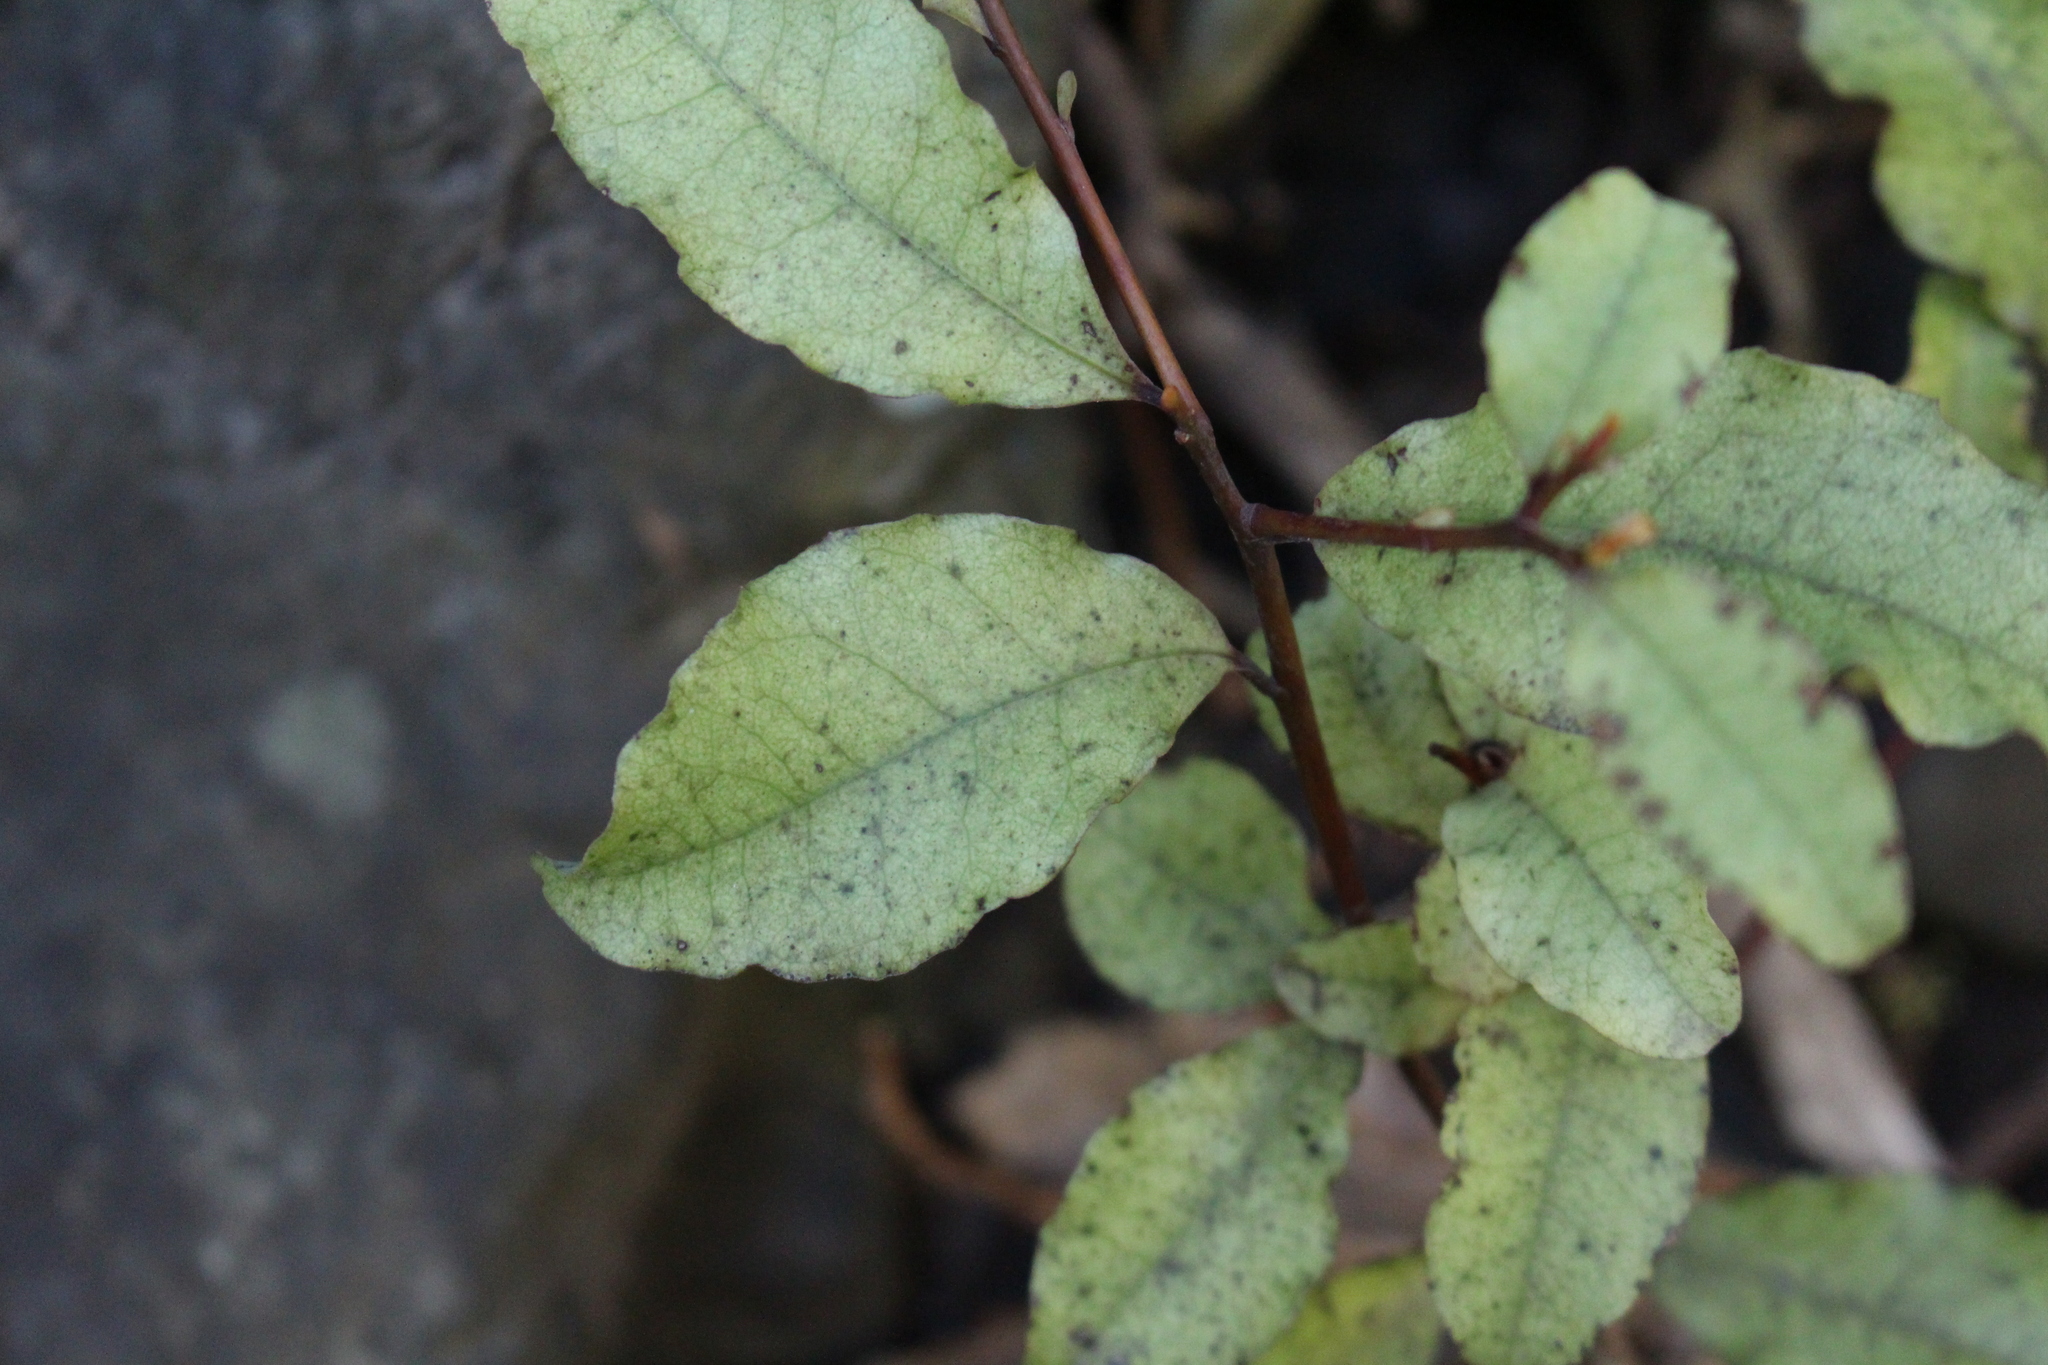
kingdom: Plantae
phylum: Tracheophyta
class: Magnoliopsida
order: Ericales
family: Primulaceae
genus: Myrsine
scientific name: Myrsine australis
